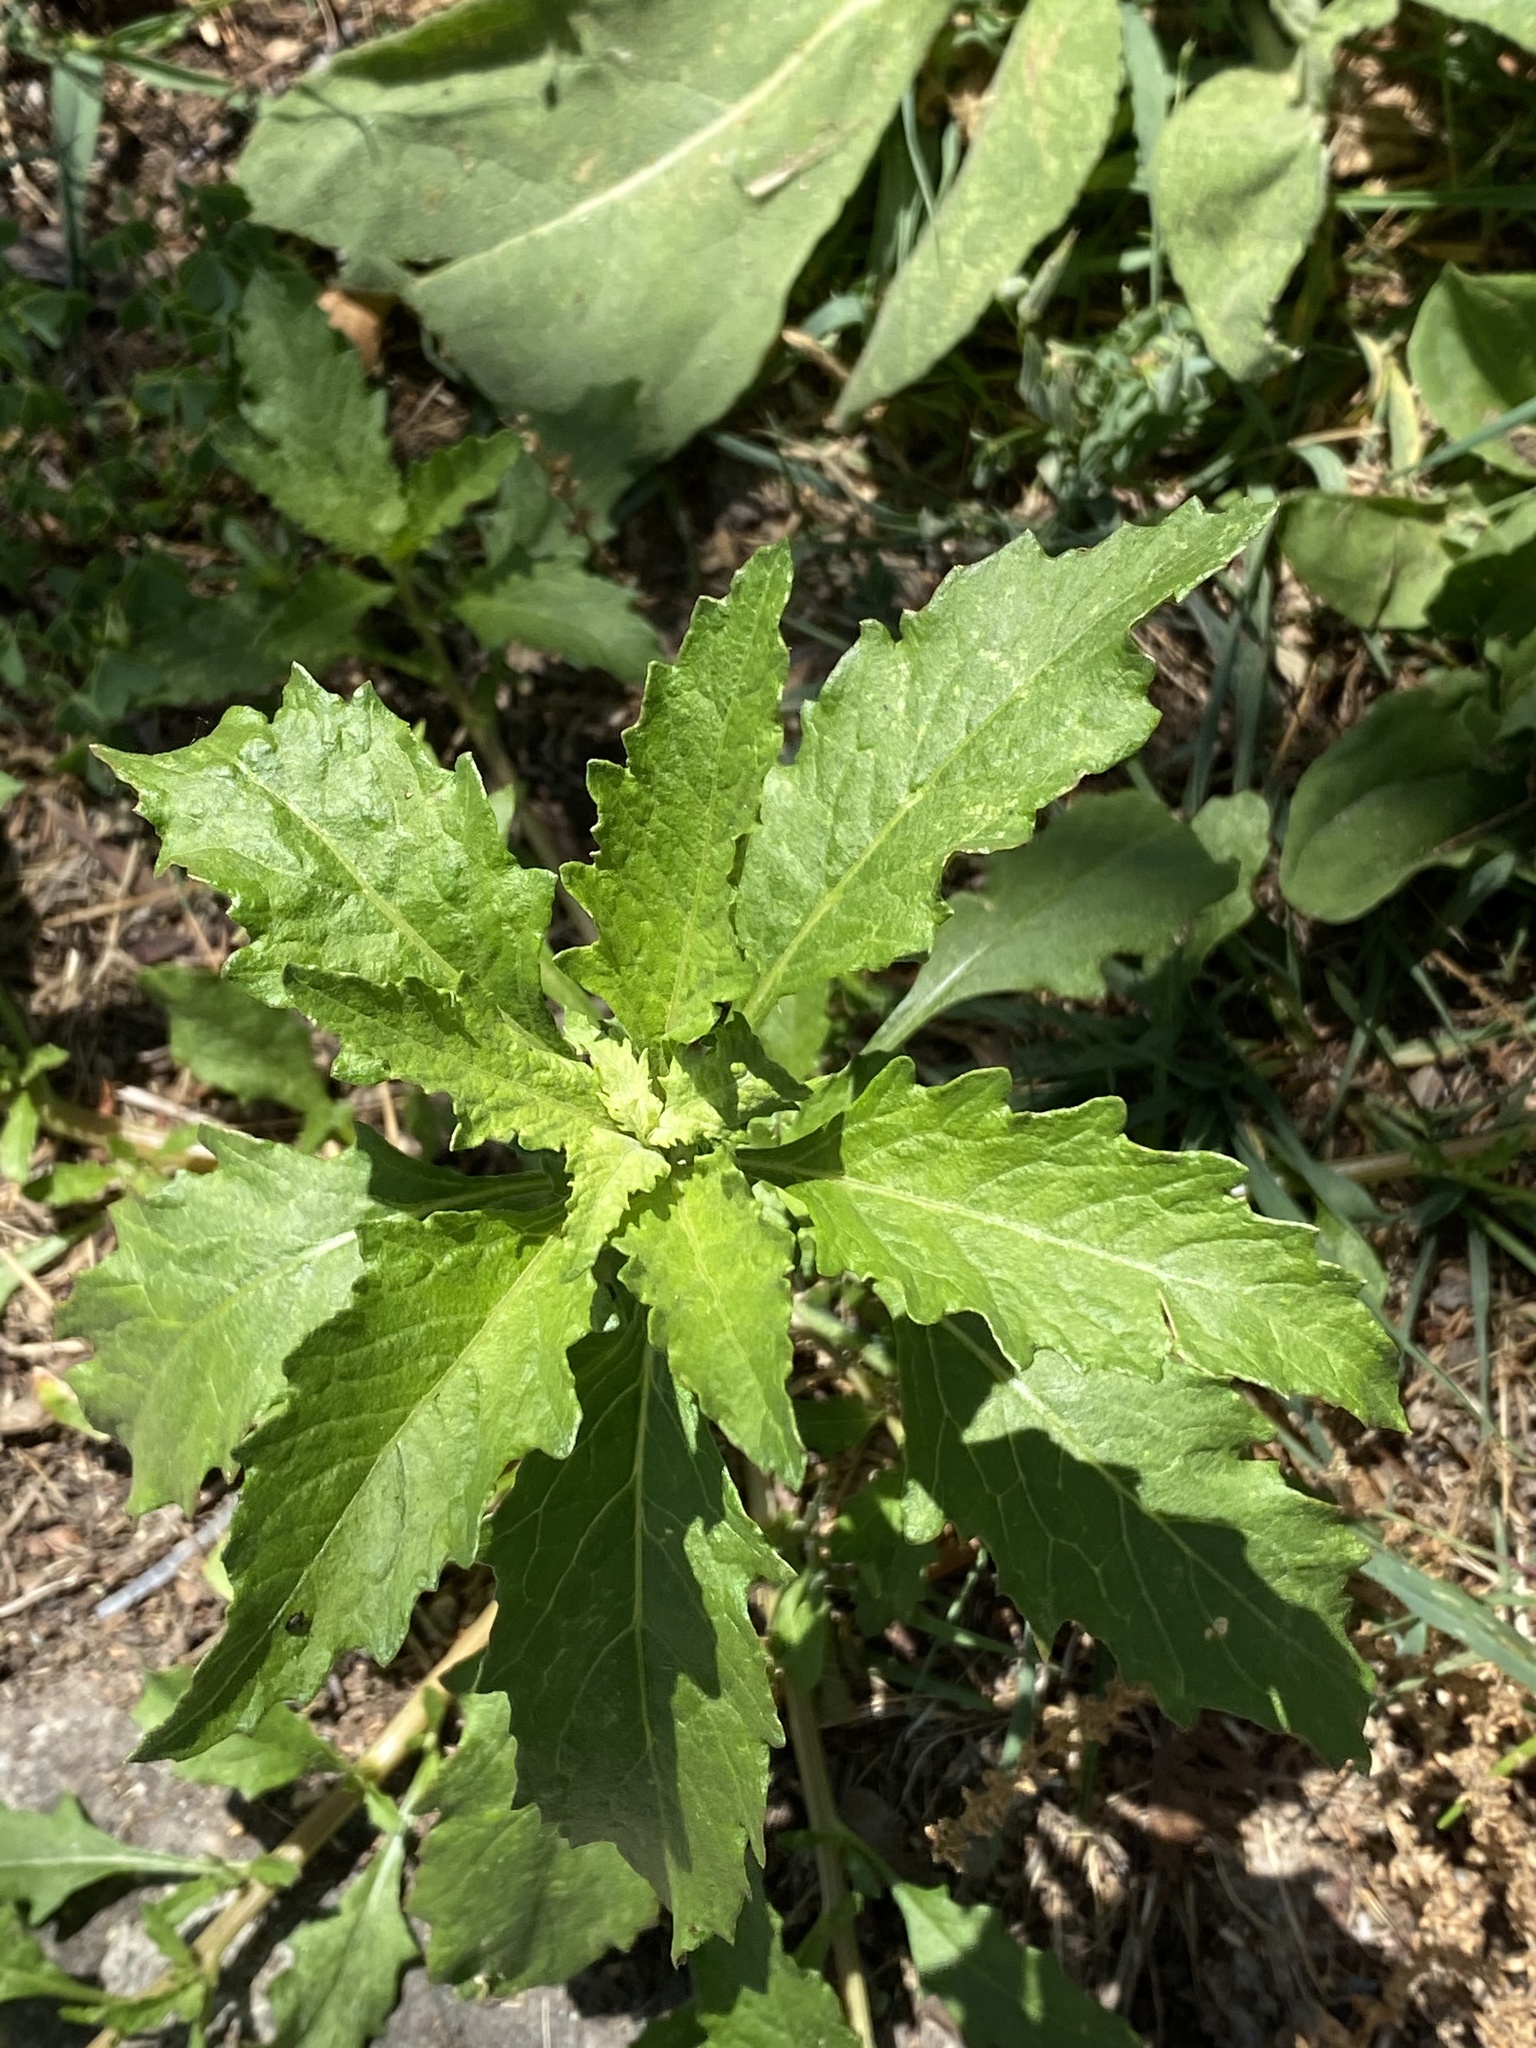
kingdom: Plantae
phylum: Tracheophyta
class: Magnoliopsida
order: Caryophyllales
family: Amaranthaceae
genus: Dysphania
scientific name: Dysphania ambrosioides
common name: Wormseed
